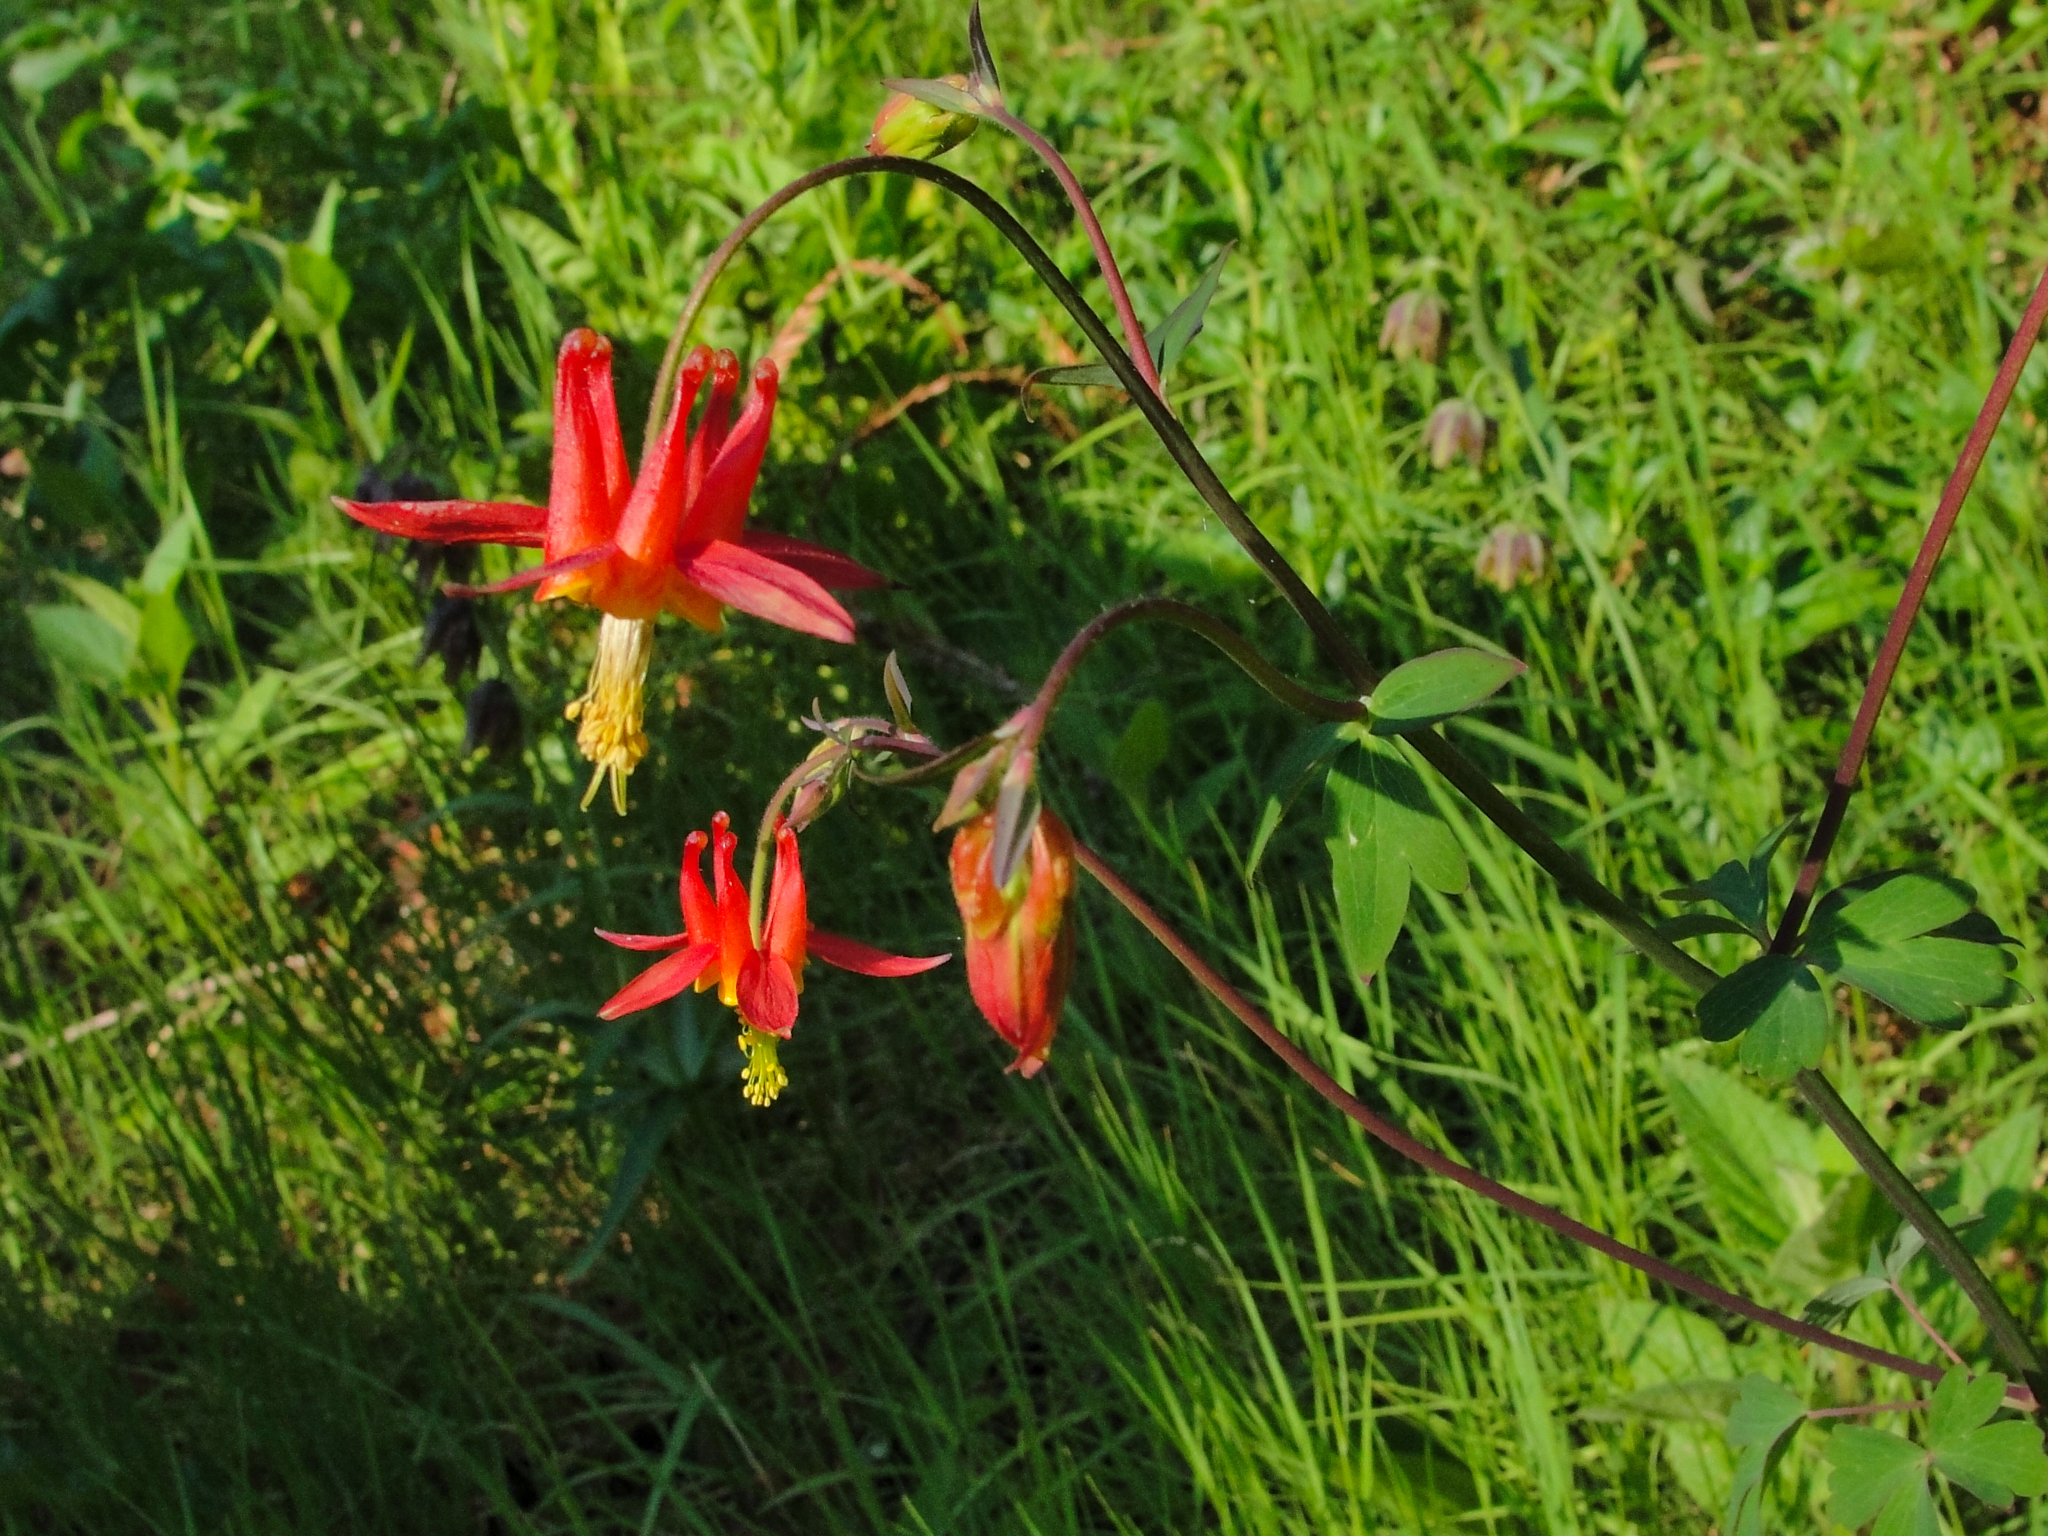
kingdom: Plantae
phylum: Tracheophyta
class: Magnoliopsida
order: Ranunculales
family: Ranunculaceae
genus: Aquilegia
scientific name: Aquilegia formosa
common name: Sitka columbine
